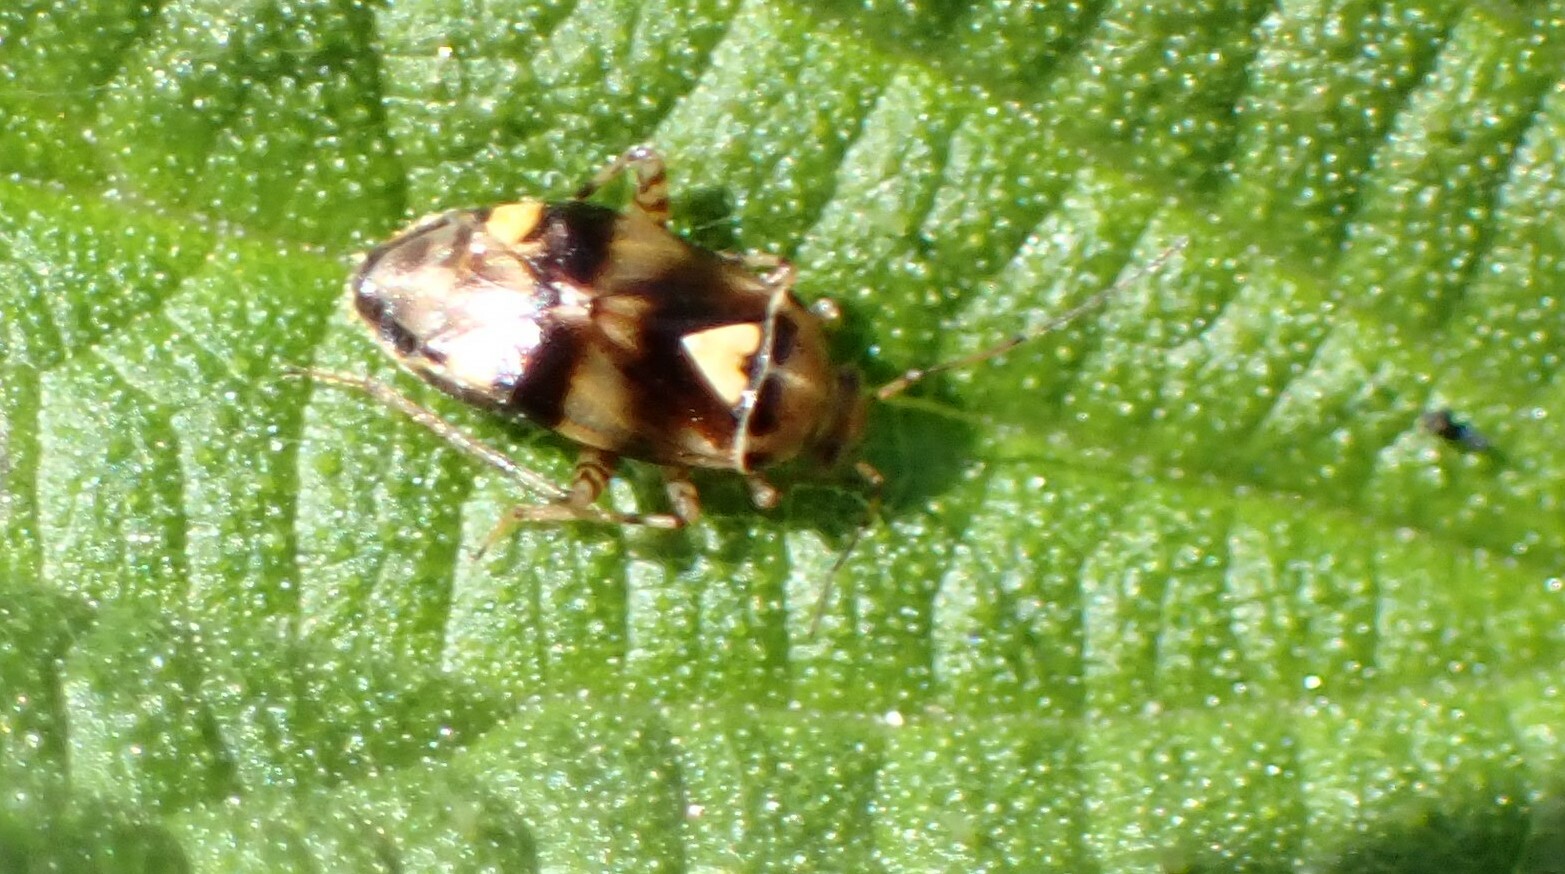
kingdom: Animalia
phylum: Arthropoda
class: Insecta
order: Hemiptera
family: Miridae
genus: Liocoris
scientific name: Liocoris tripustulatus
